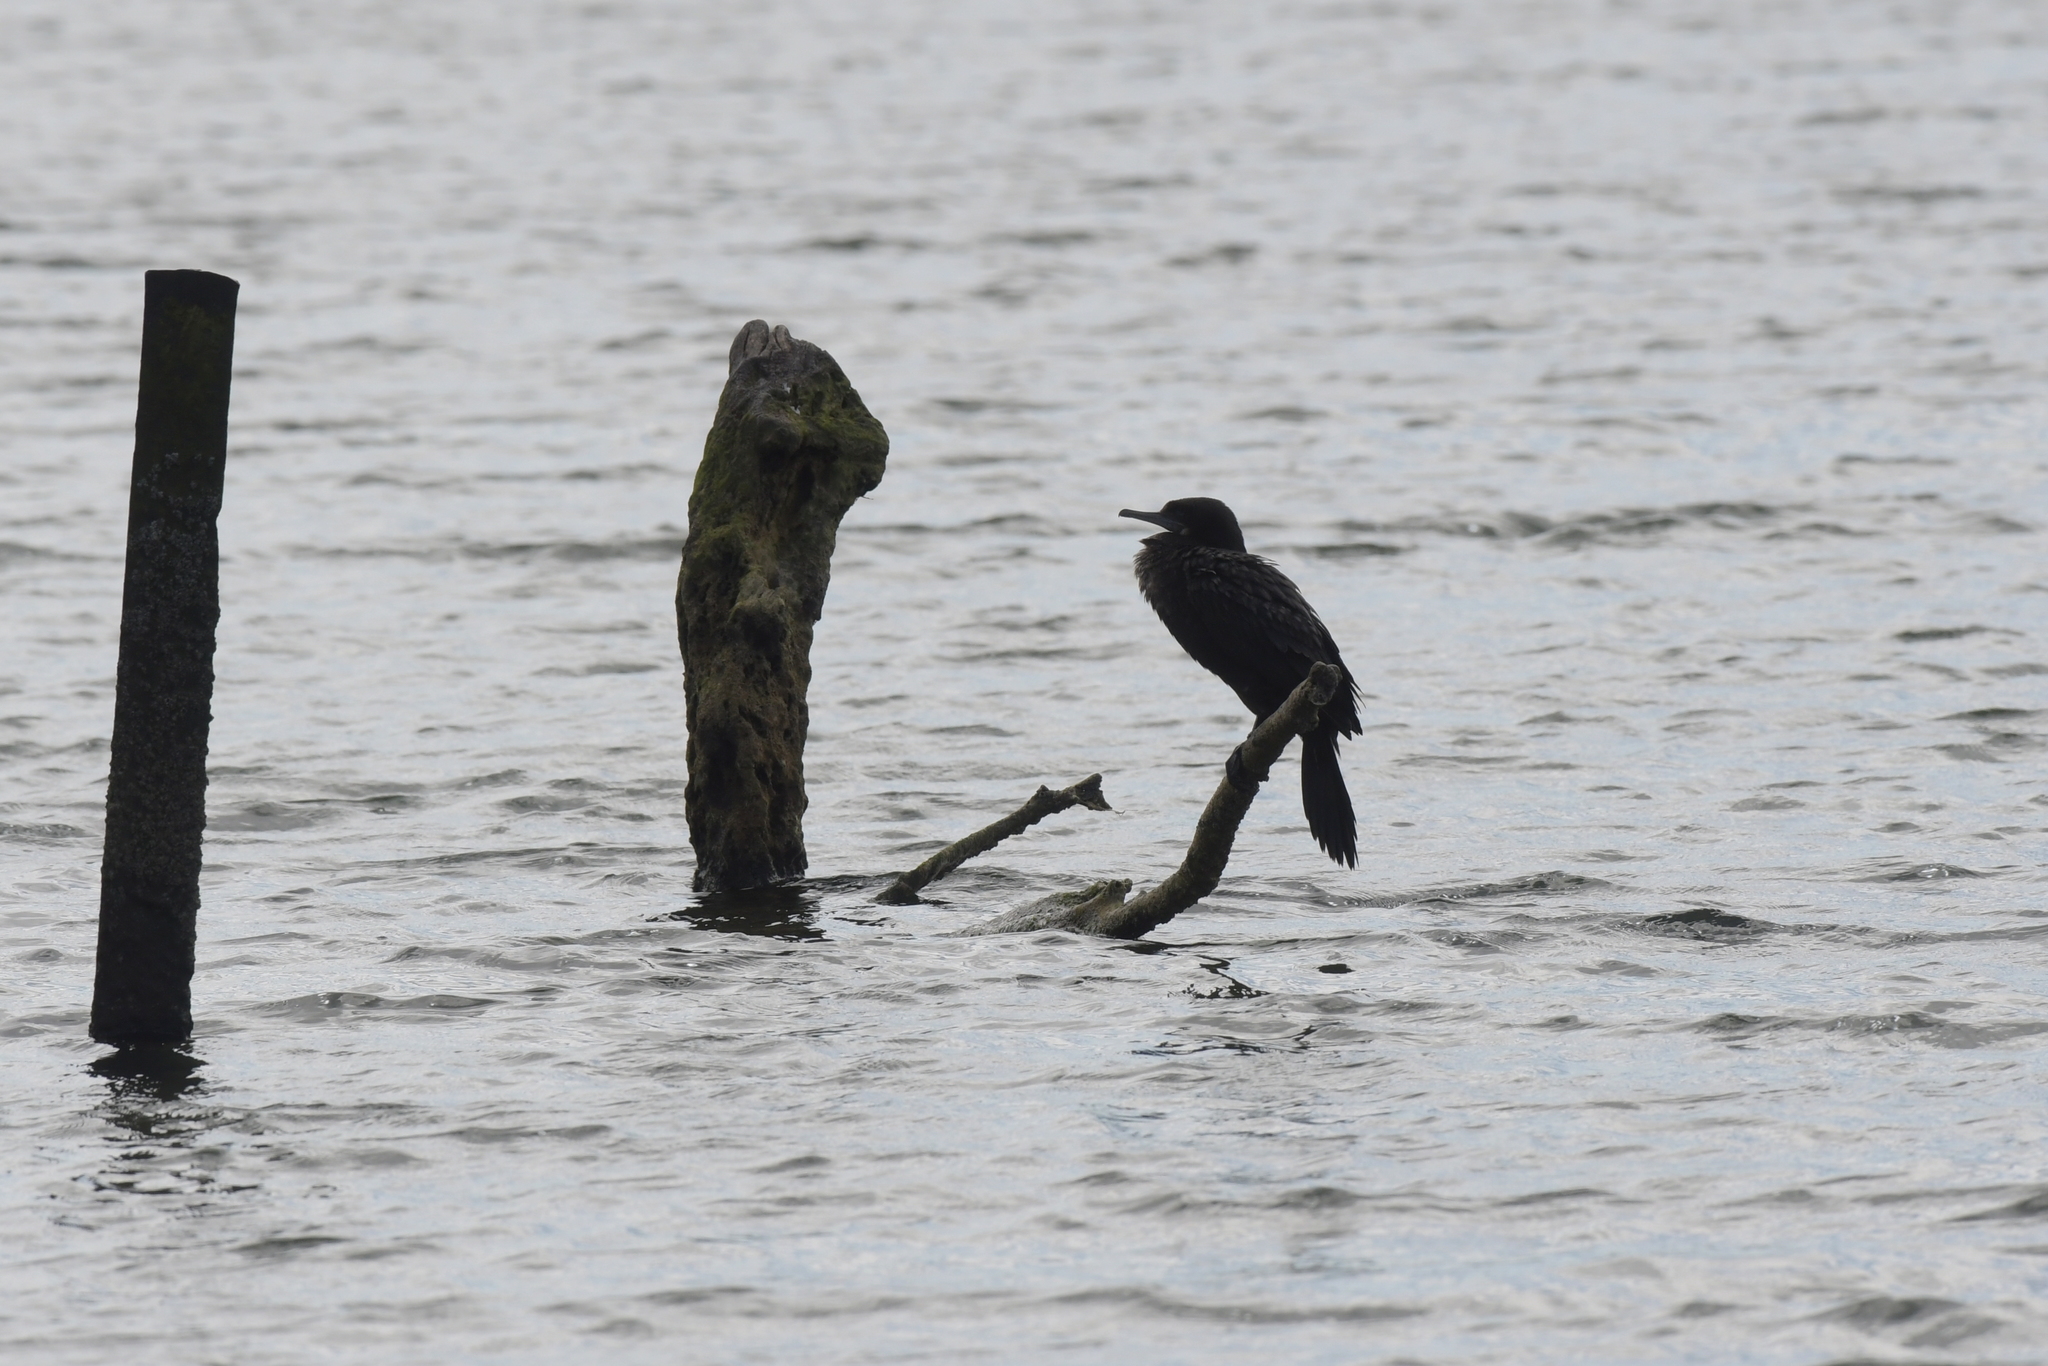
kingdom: Animalia
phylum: Chordata
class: Aves
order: Suliformes
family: Phalacrocoracidae
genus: Phalacrocorax
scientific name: Phalacrocorax sulcirostris
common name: Little black cormorant
